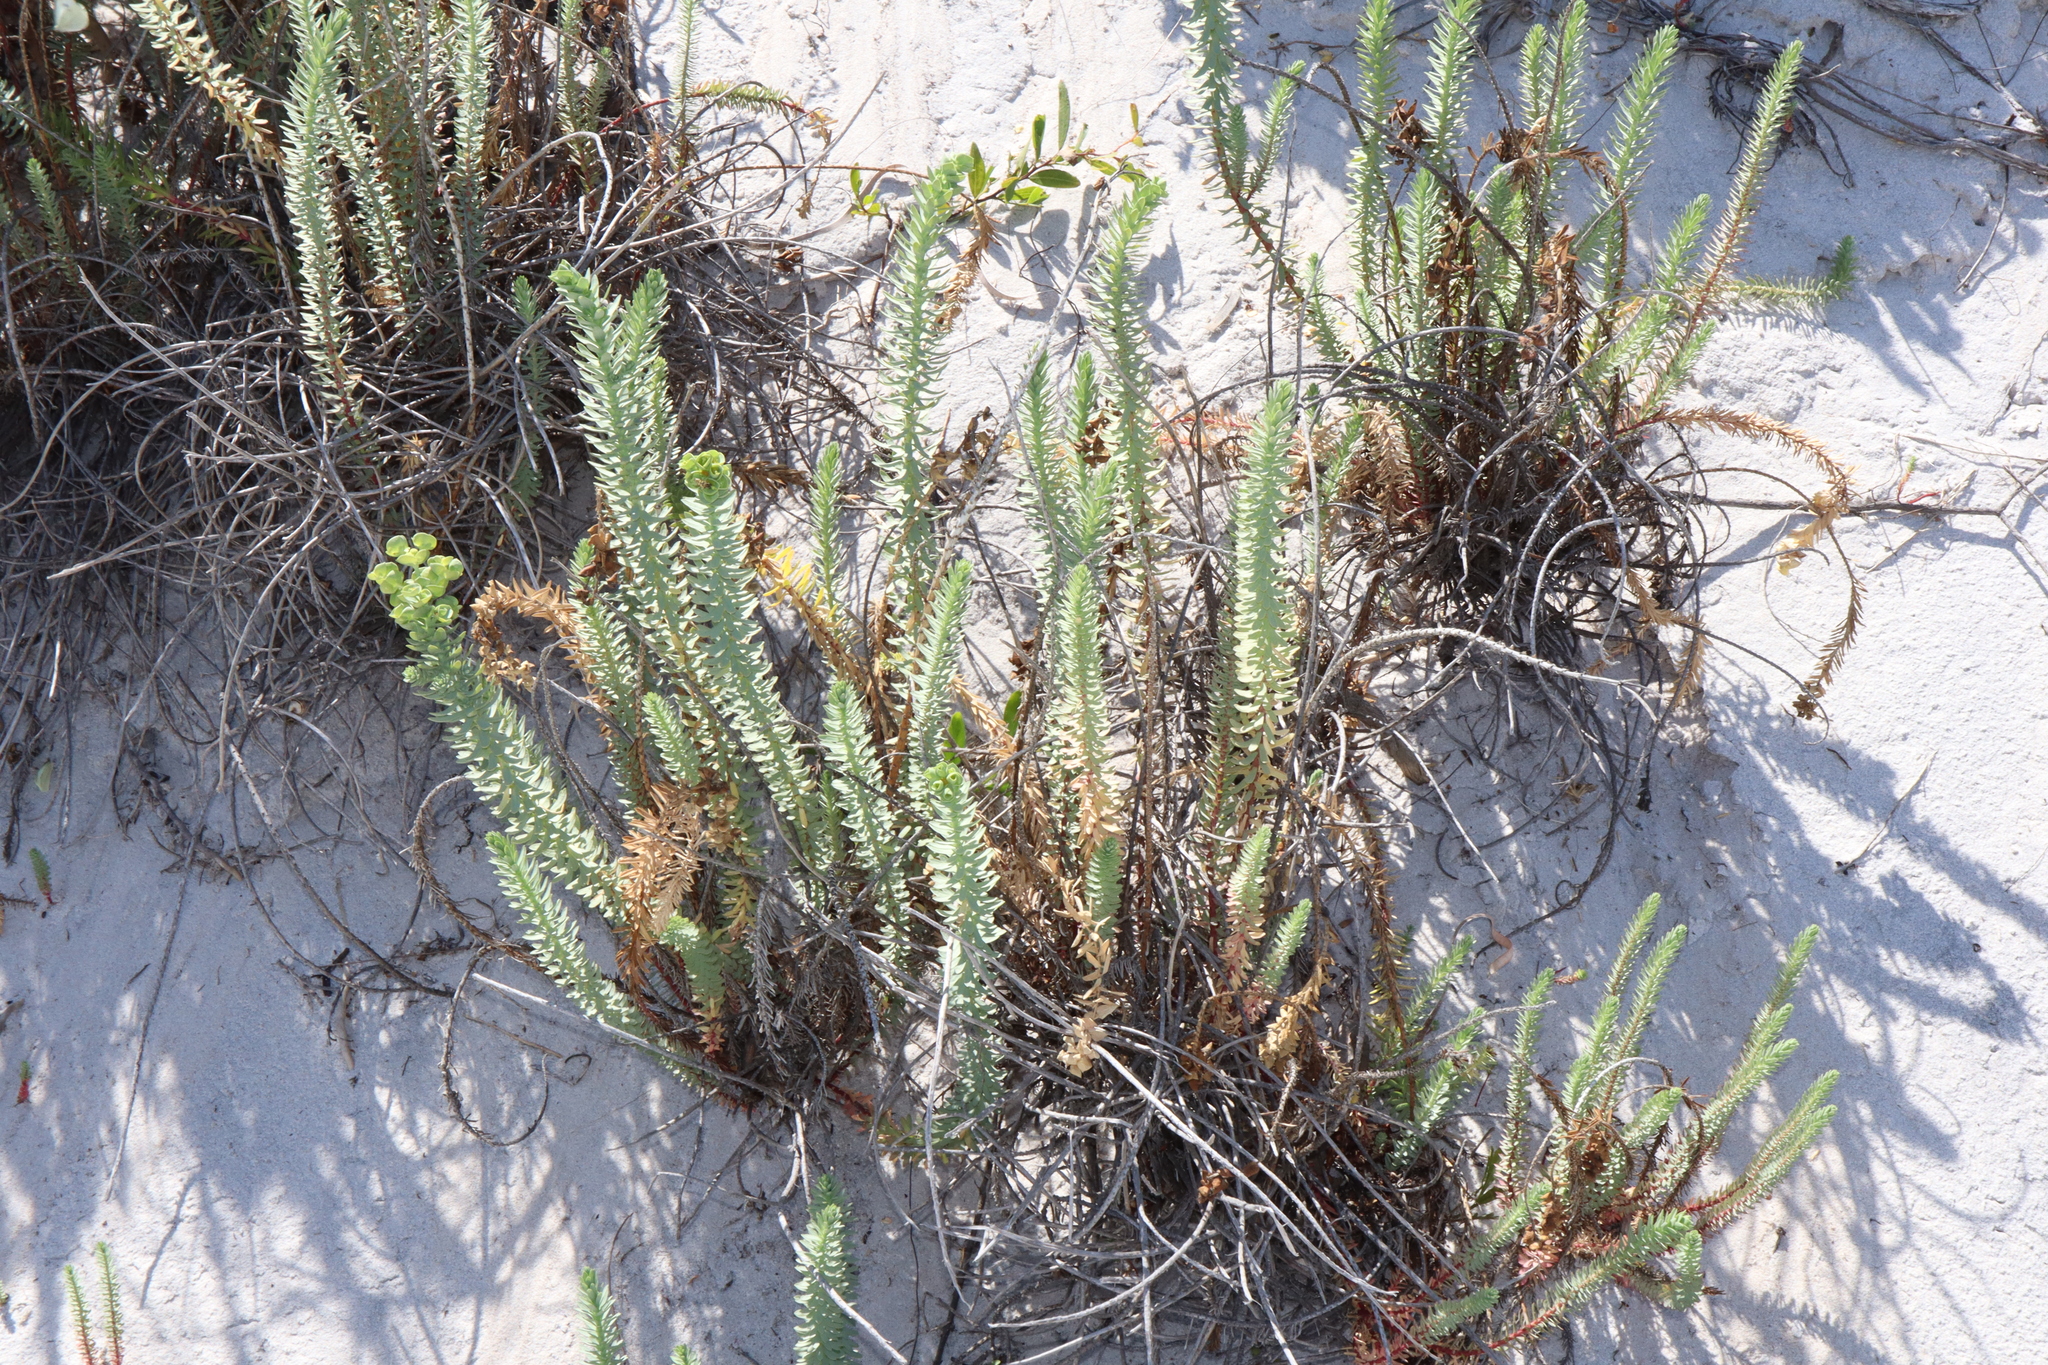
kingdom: Plantae
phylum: Tracheophyta
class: Magnoliopsida
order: Malpighiales
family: Euphorbiaceae
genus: Euphorbia
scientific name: Euphorbia paralias
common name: Sea spurge
